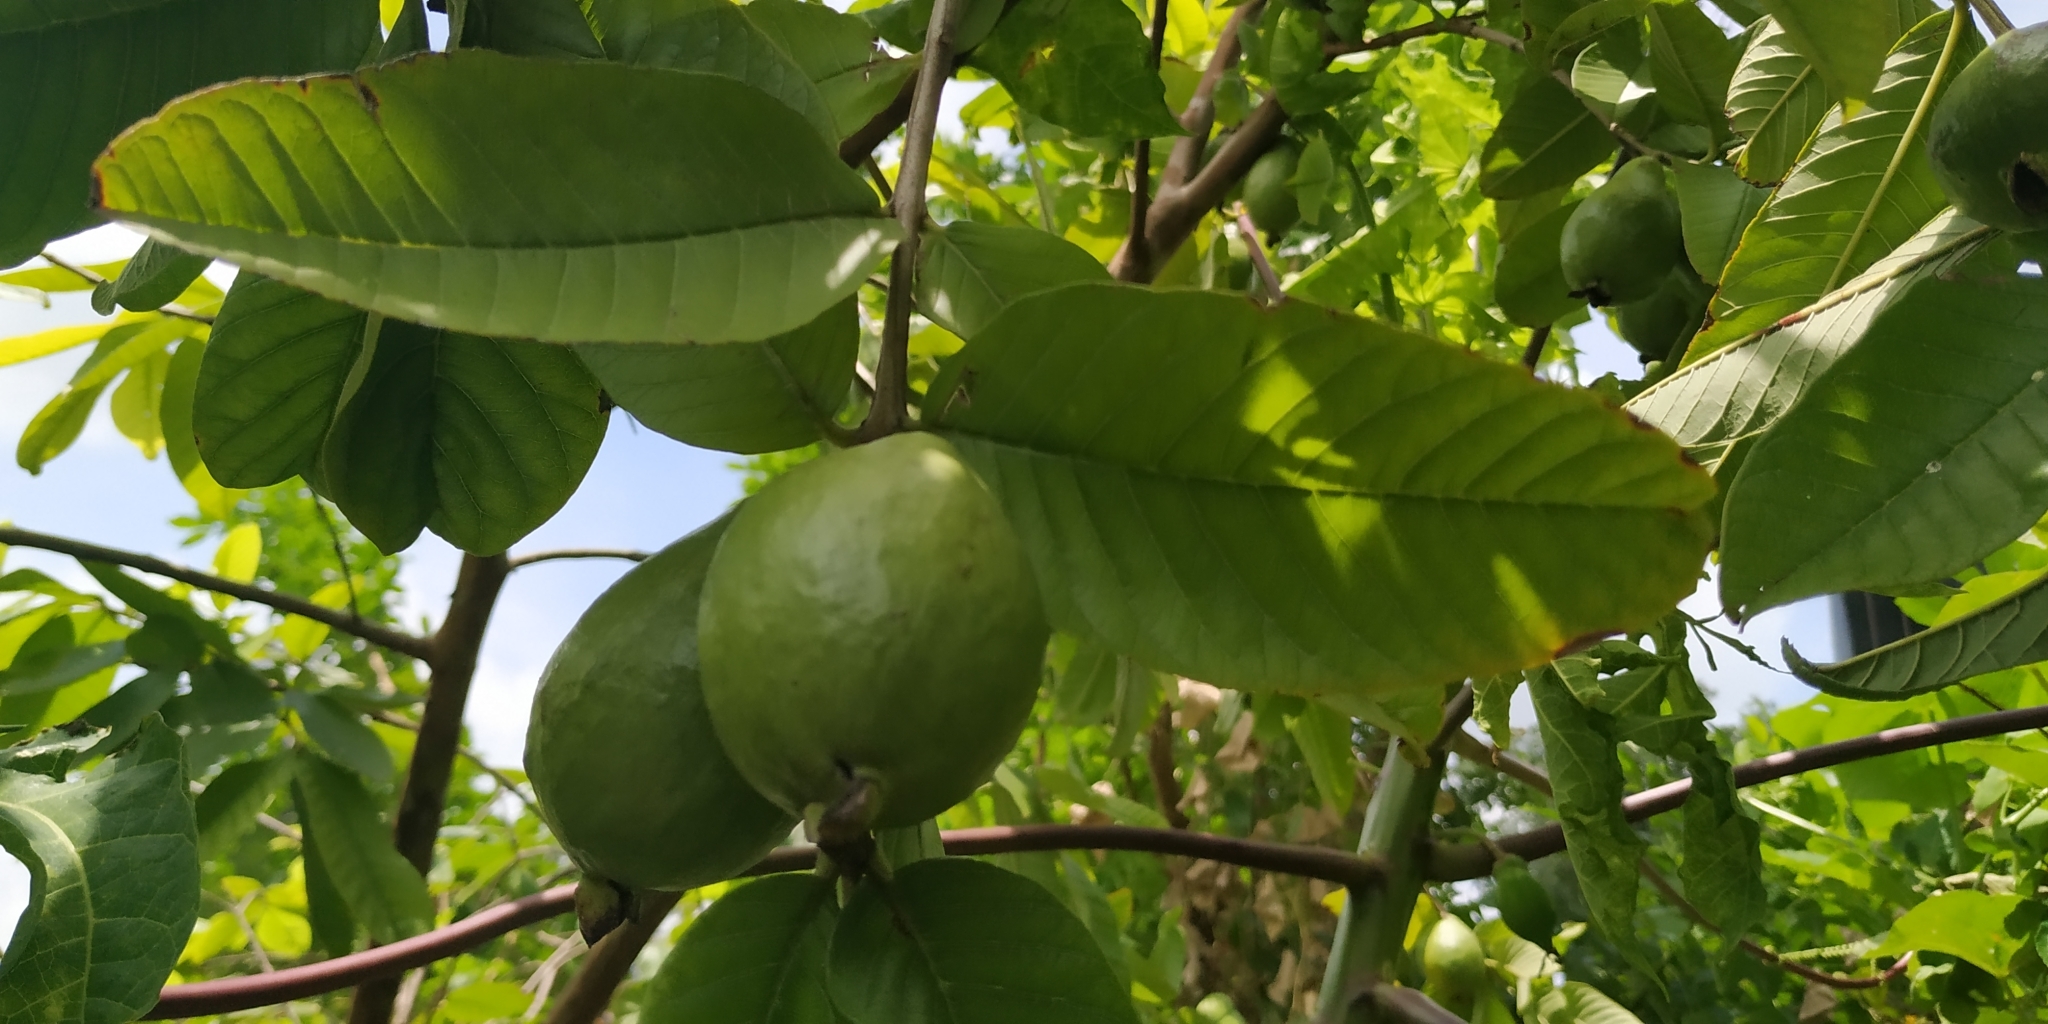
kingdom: Plantae
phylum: Tracheophyta
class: Magnoliopsida
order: Myrtales
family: Myrtaceae
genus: Psidium
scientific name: Psidium guajava
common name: Guava
